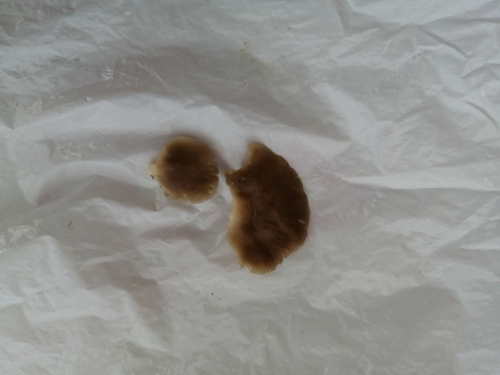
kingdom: Fungi
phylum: Basidiomycota
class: Agaricomycetes
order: Agaricales
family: Pleurotaceae
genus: Pleurotus
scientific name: Pleurotus ostreatus
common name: Oyster mushroom
